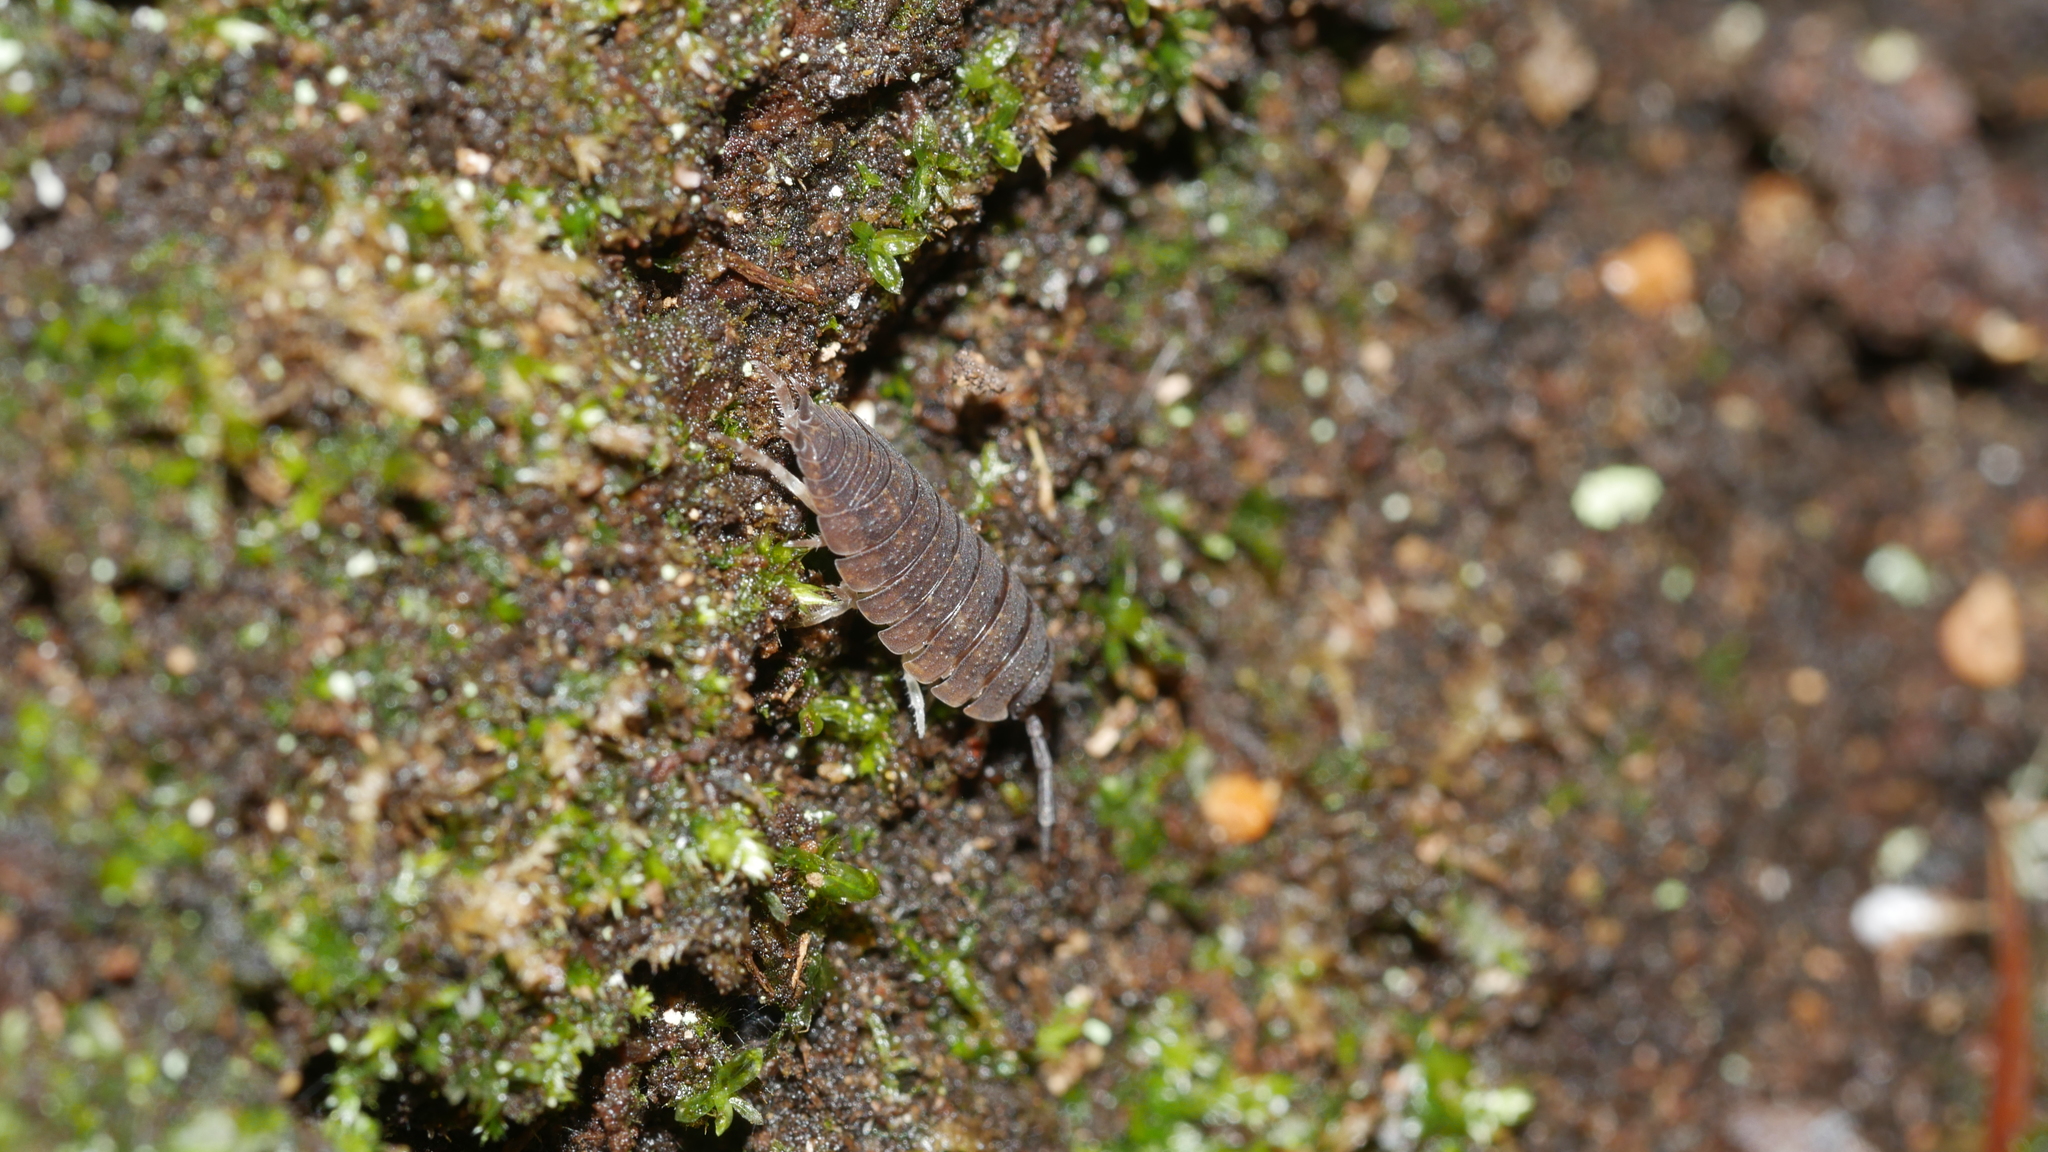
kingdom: Animalia
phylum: Arthropoda
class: Malacostraca
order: Isopoda
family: Porcellionidae
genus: Porcellio
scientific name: Porcellio scaber
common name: Common rough woodlouse
